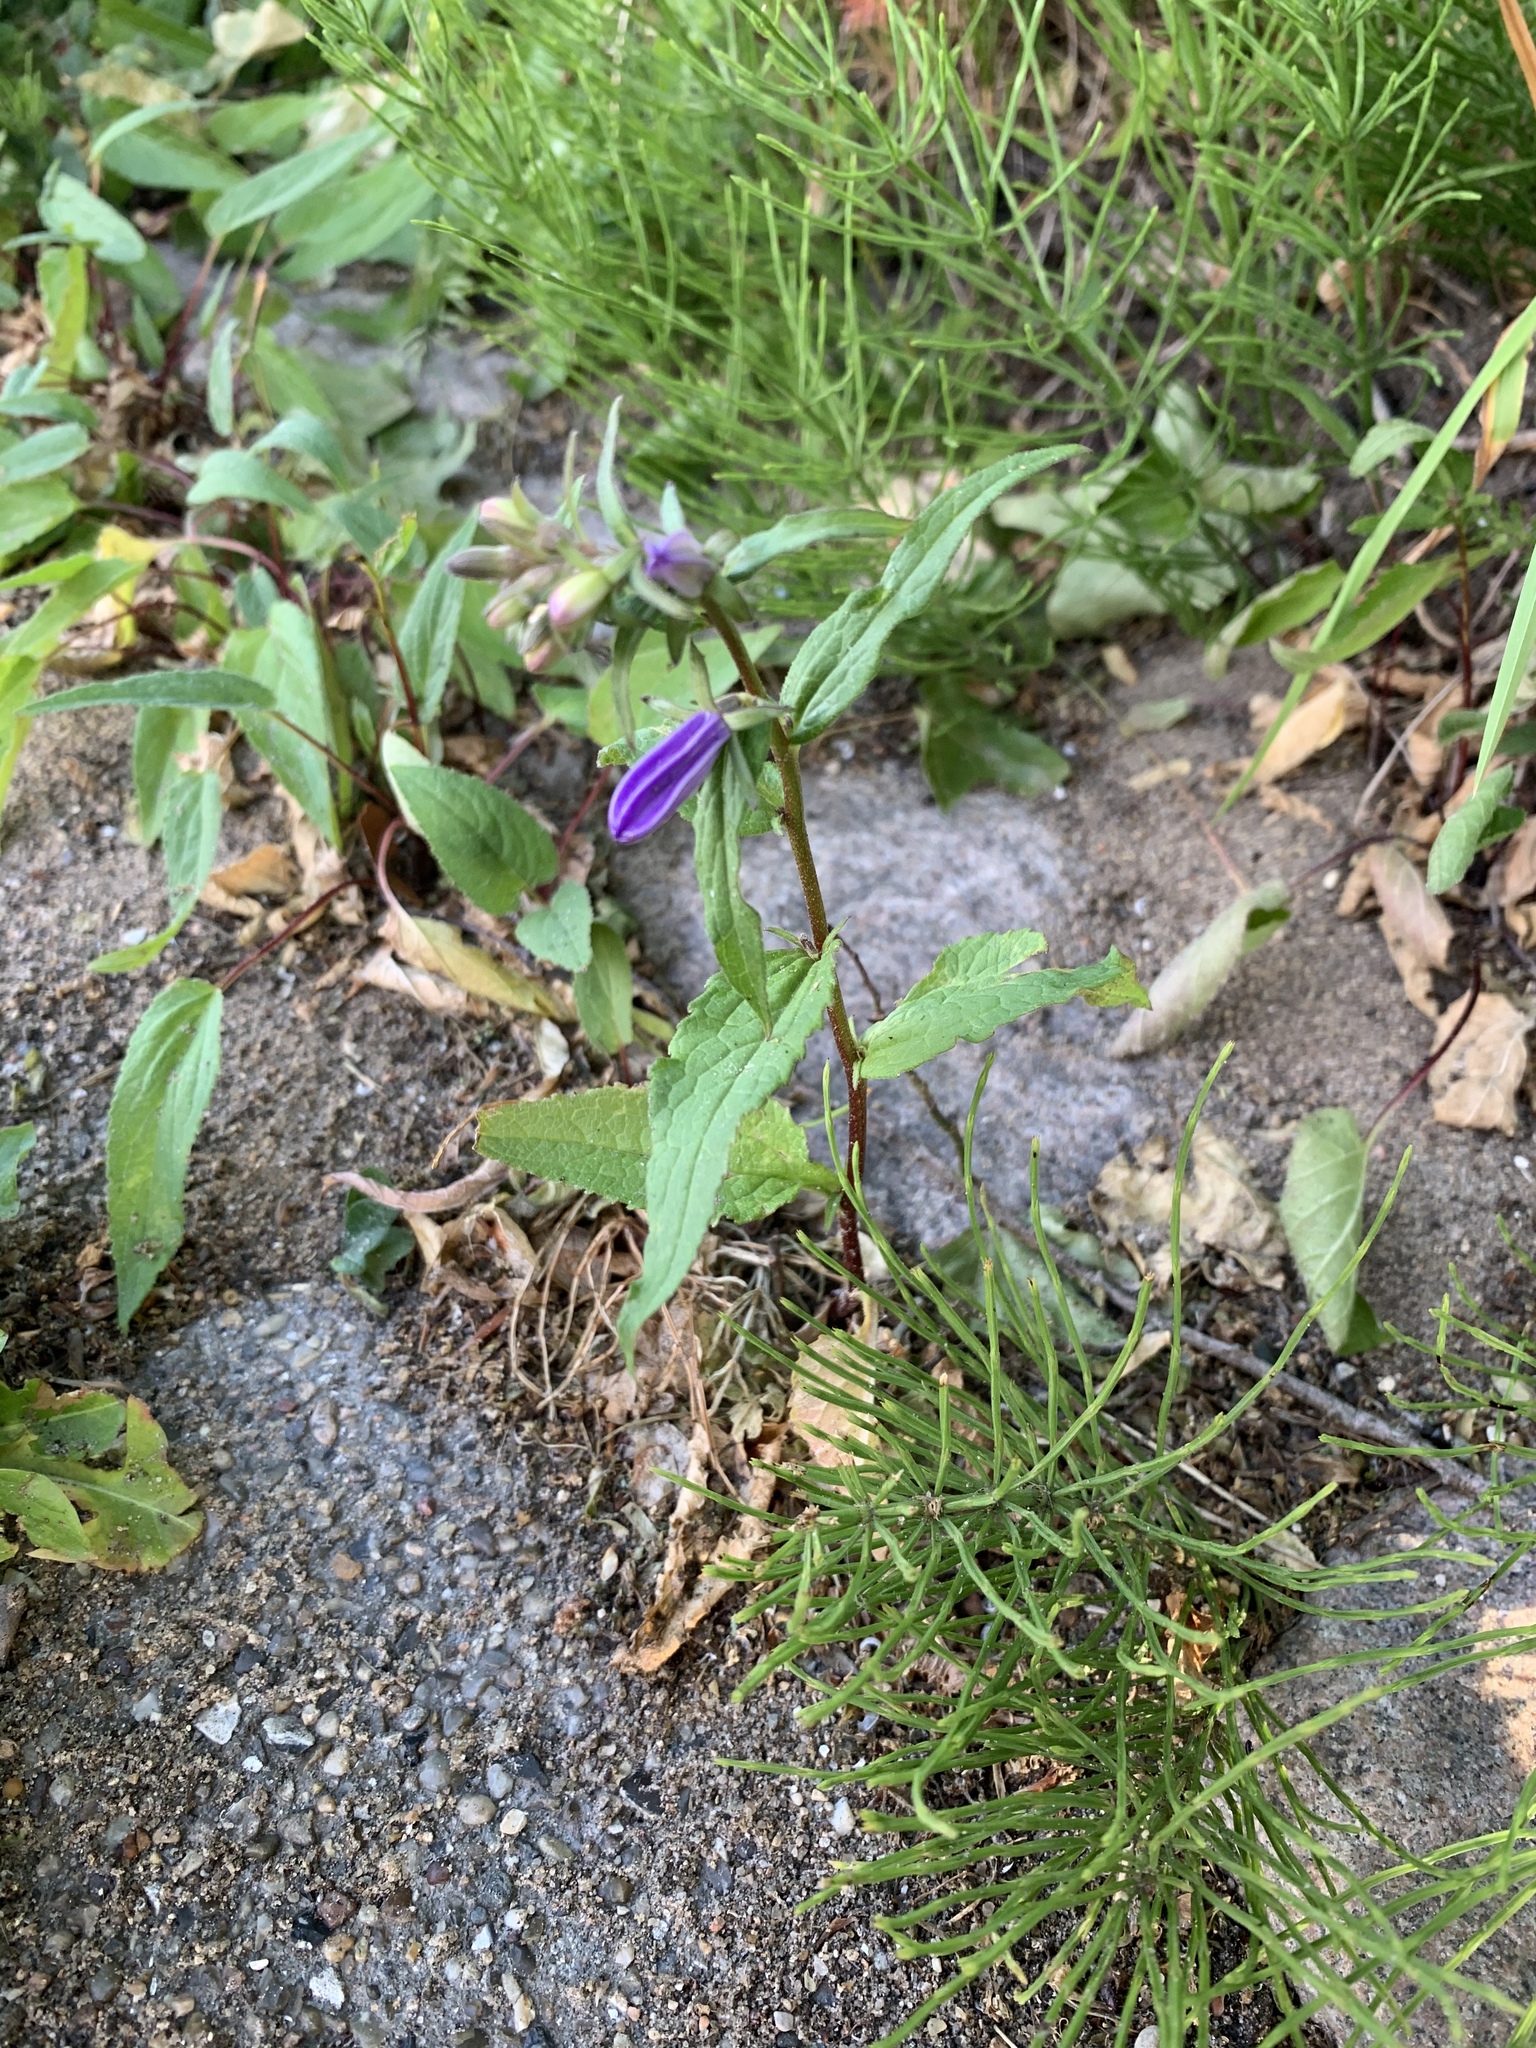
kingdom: Plantae
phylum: Tracheophyta
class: Magnoliopsida
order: Asterales
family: Campanulaceae
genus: Campanula
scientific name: Campanula rapunculoides
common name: Creeping bellflower
